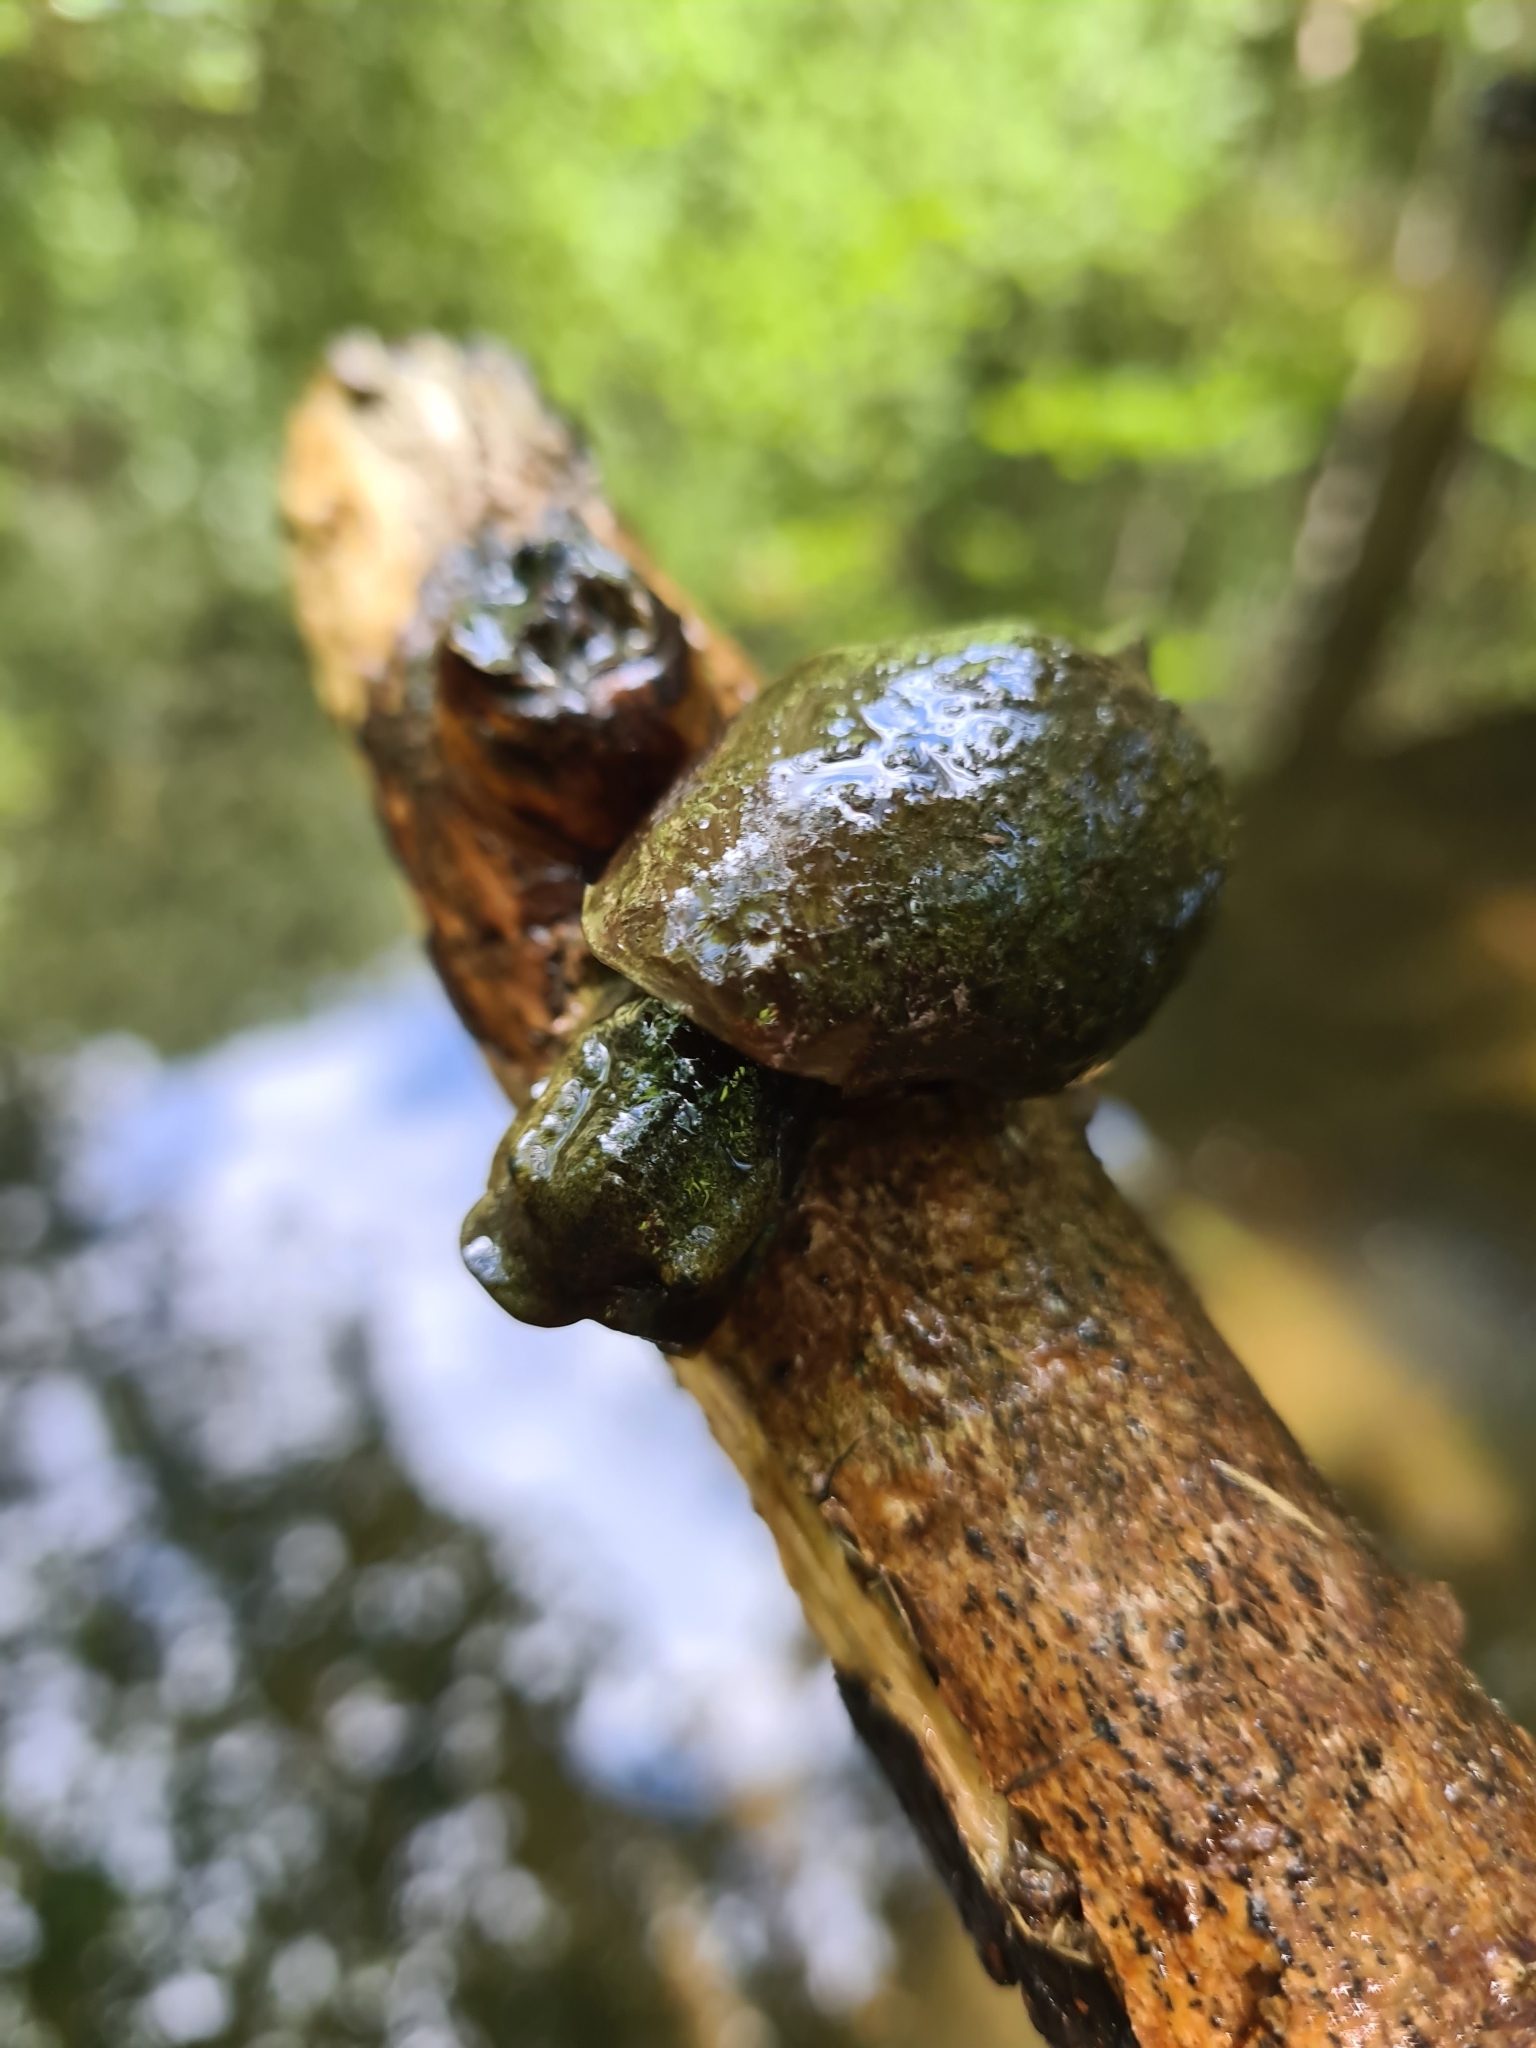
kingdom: Animalia
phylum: Mollusca
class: Gastropoda
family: Lymnaeidae
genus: Lymnaea
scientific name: Lymnaea stagnalis
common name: Great pond snail
